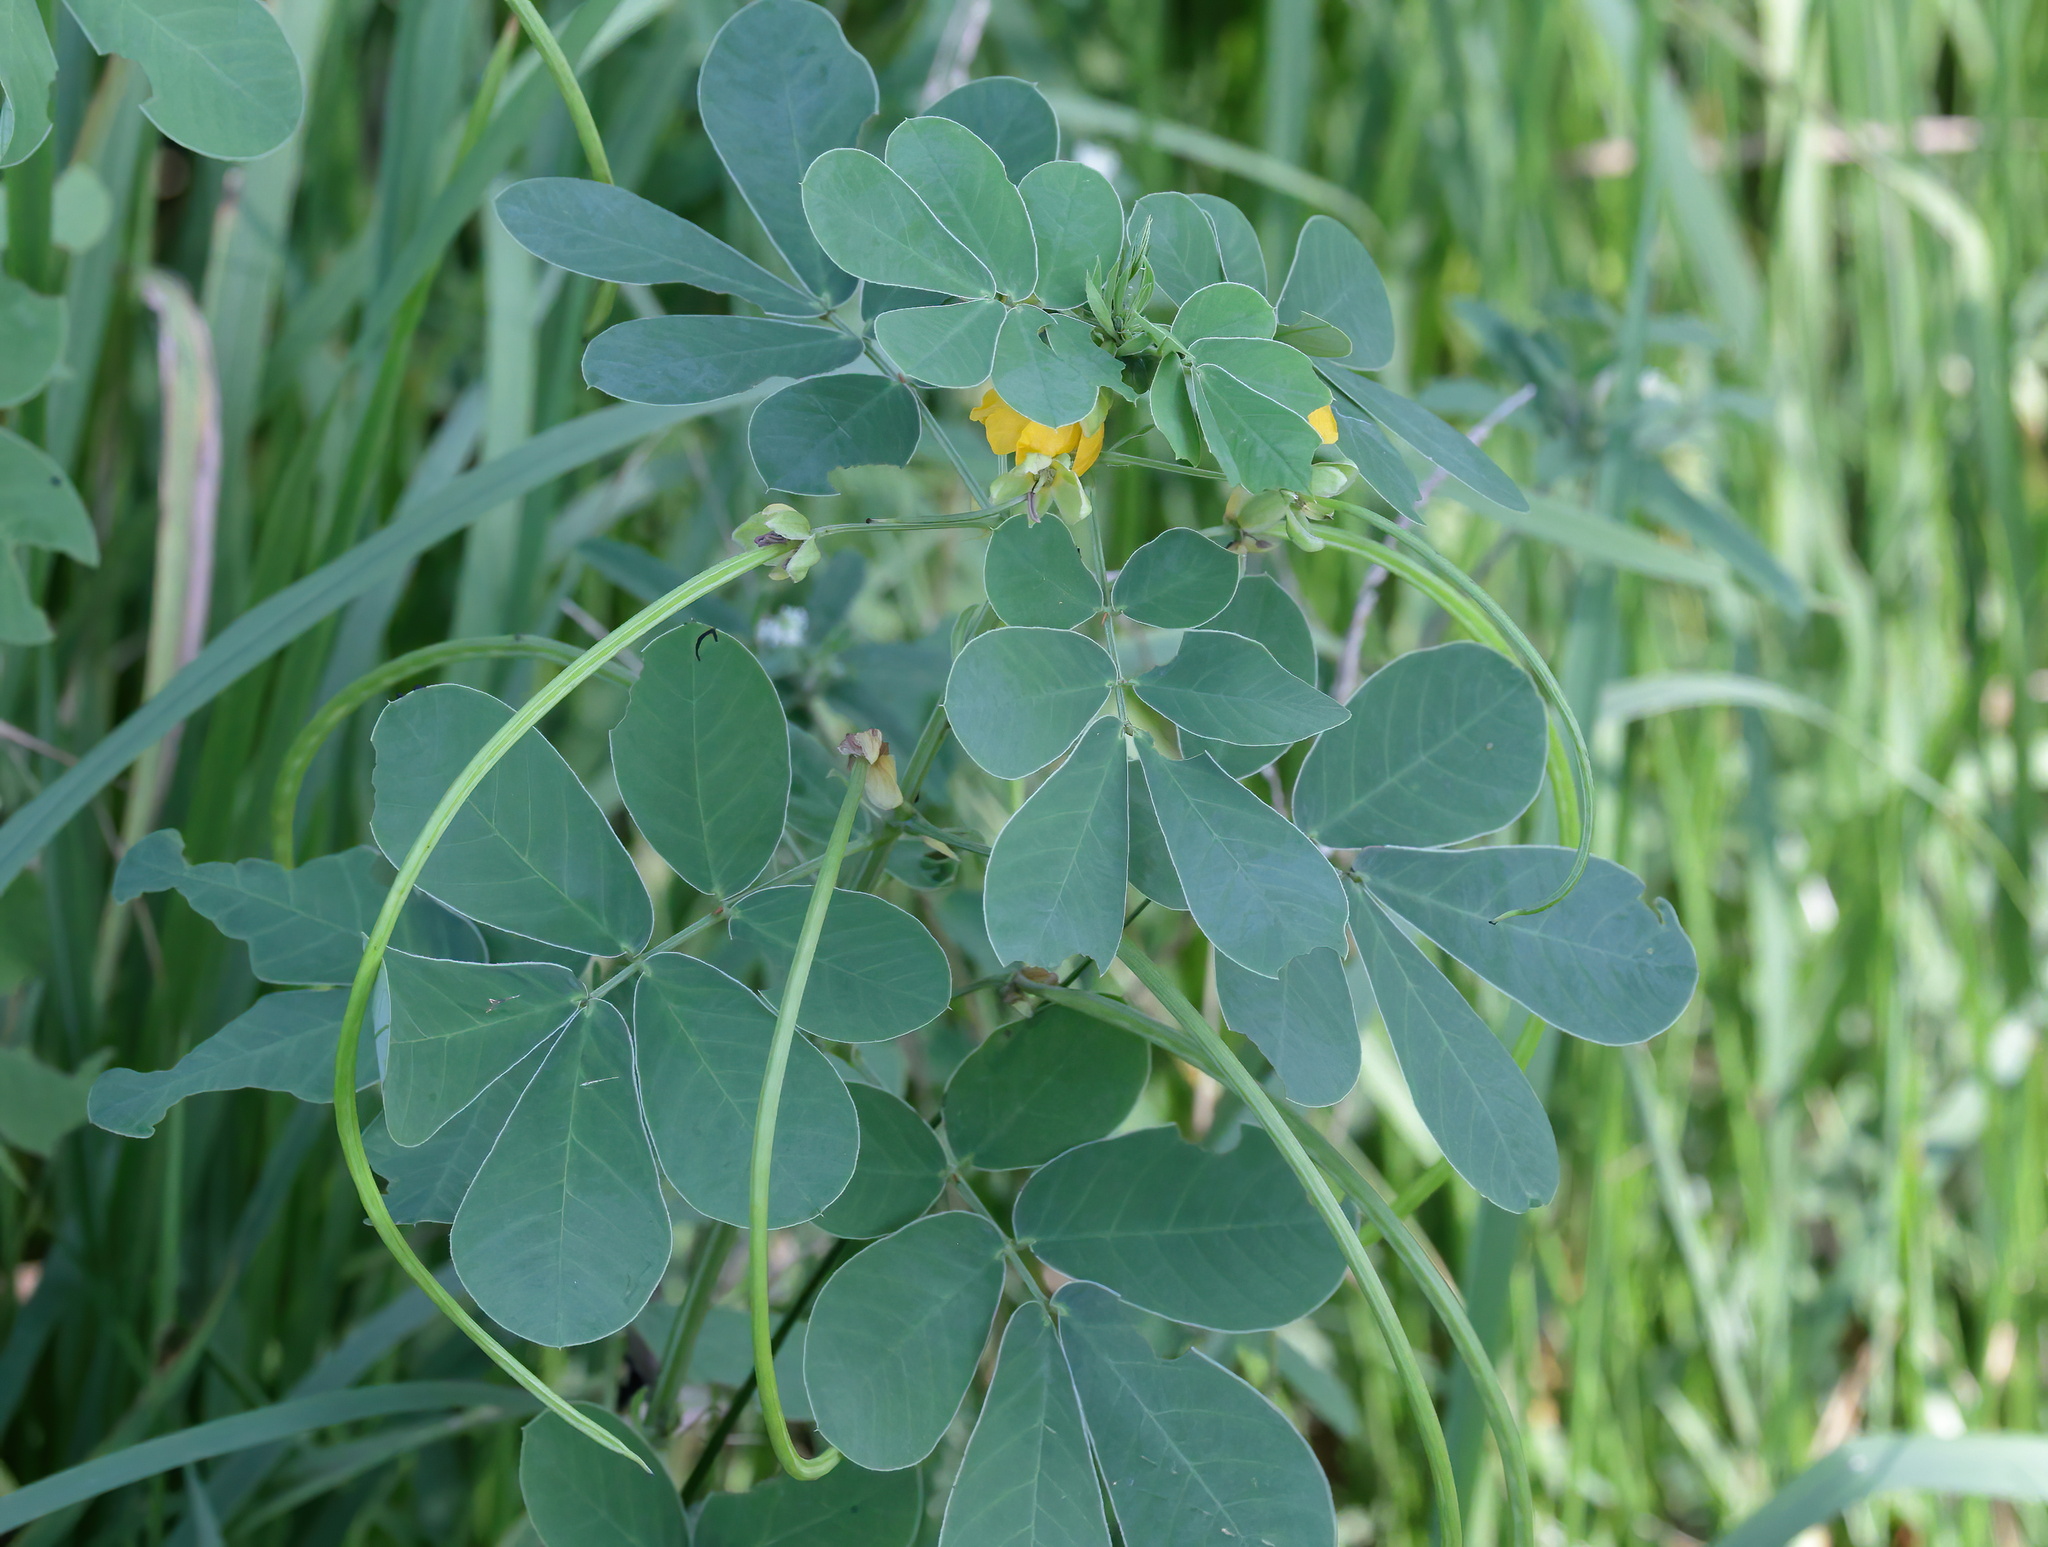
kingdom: Plantae
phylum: Tracheophyta
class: Magnoliopsida
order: Fabales
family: Fabaceae
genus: Senna
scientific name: Senna obtusifolia
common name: Java-bean
